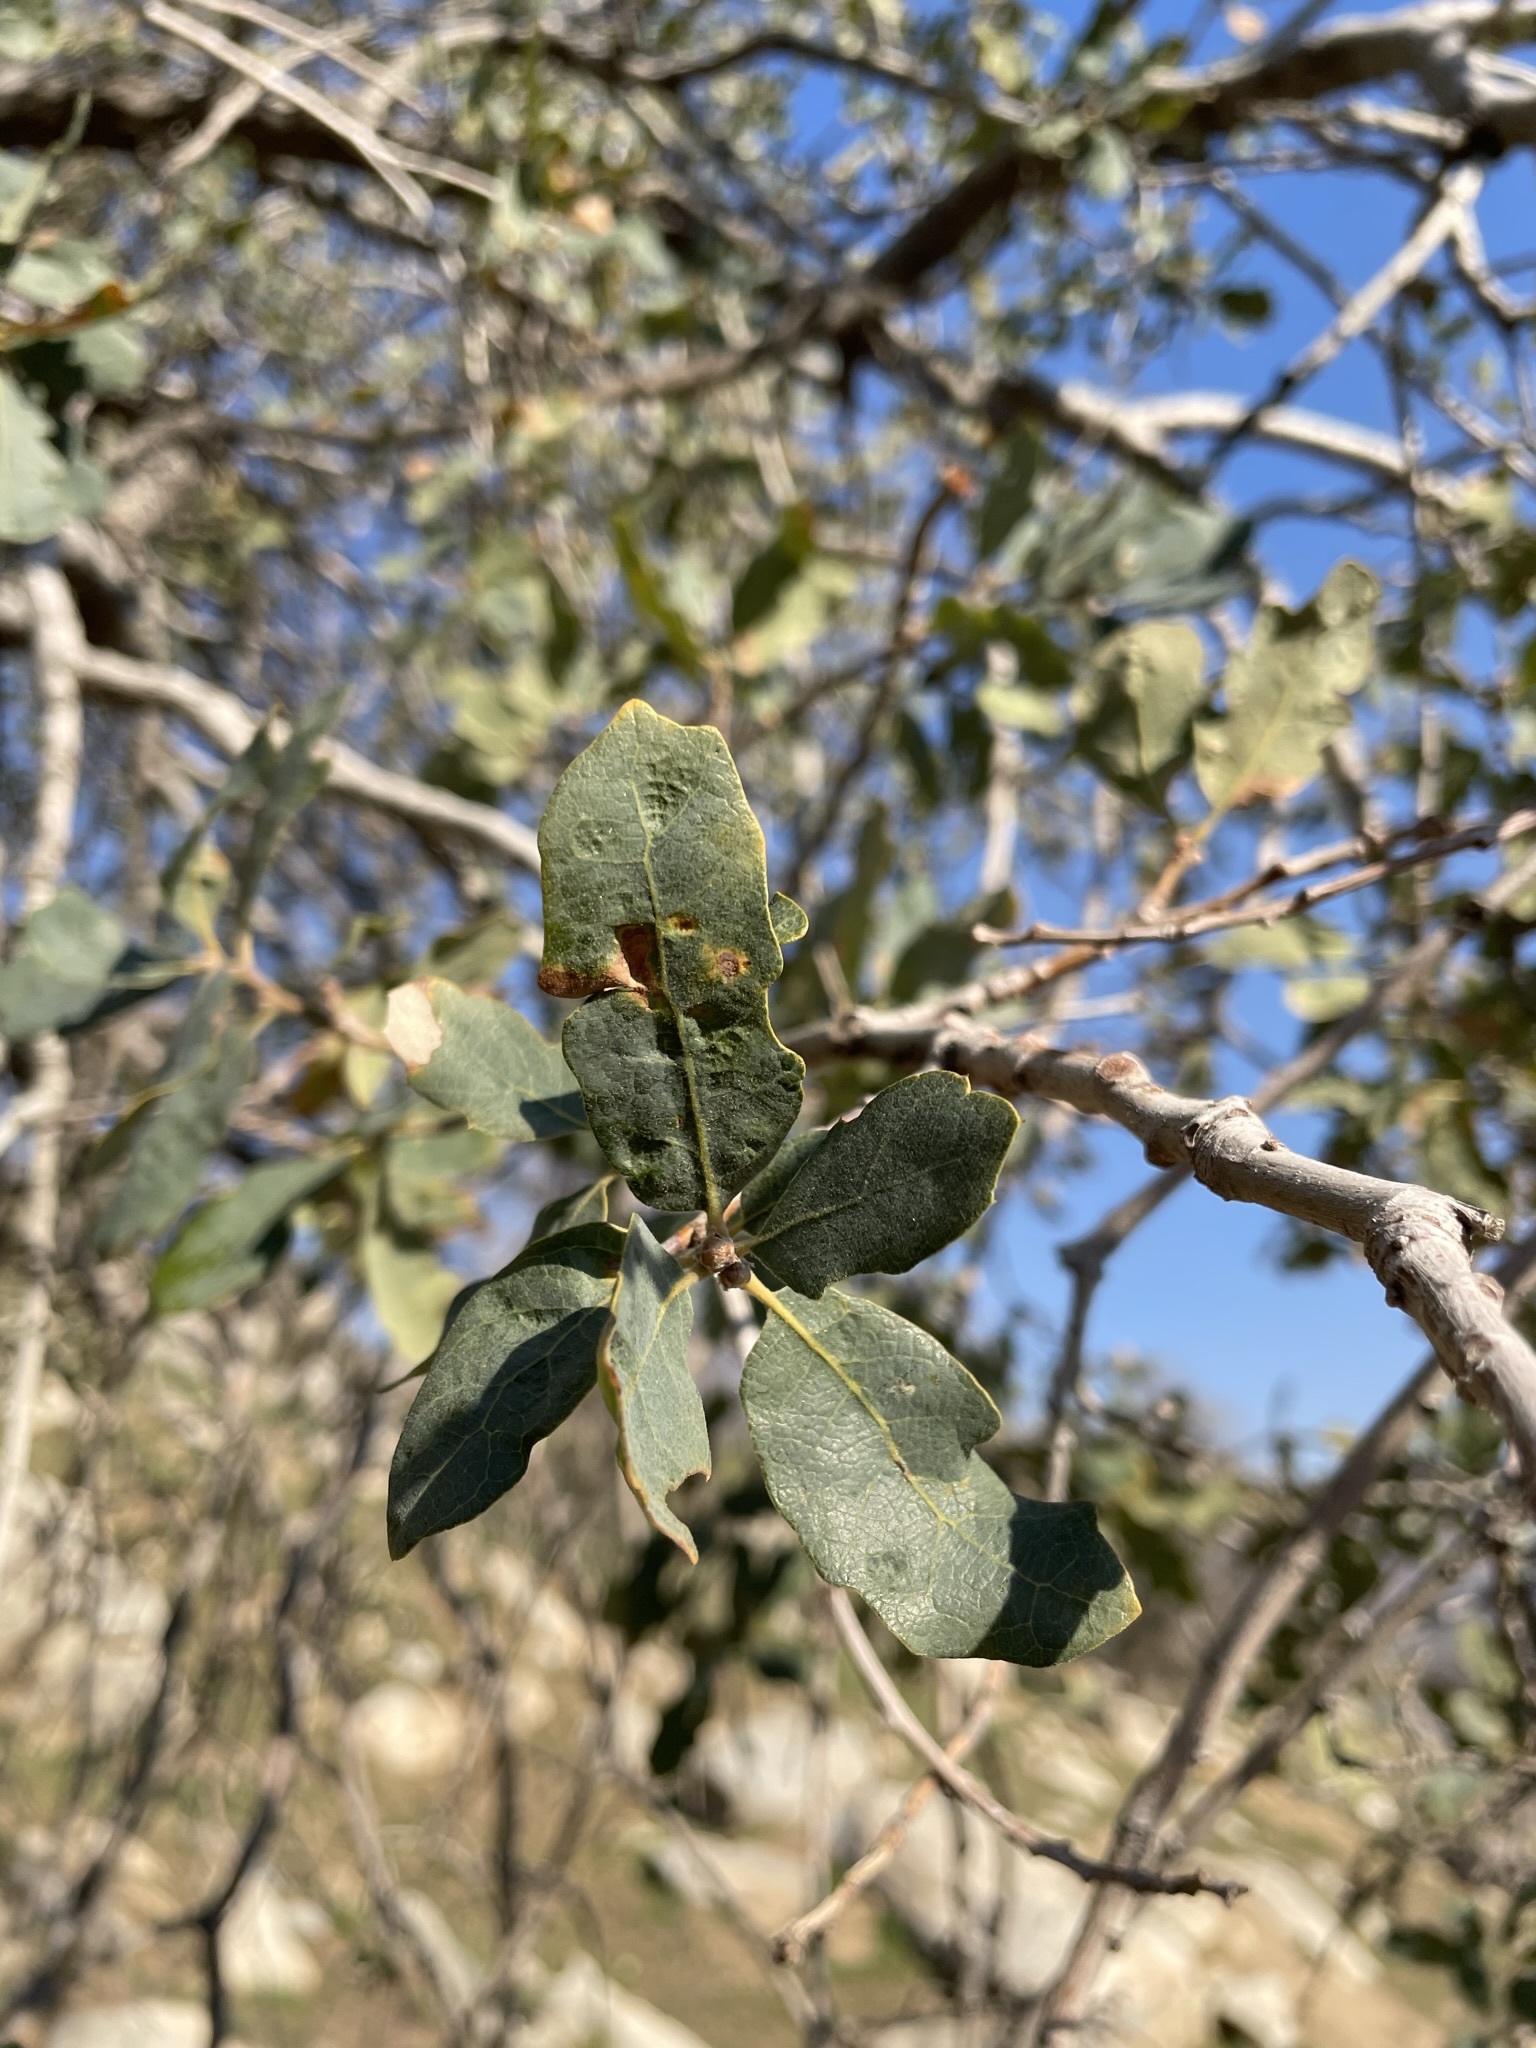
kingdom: Plantae
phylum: Tracheophyta
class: Magnoliopsida
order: Fagales
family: Fagaceae
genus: Quercus
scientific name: Quercus douglasii
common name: Blue oak
